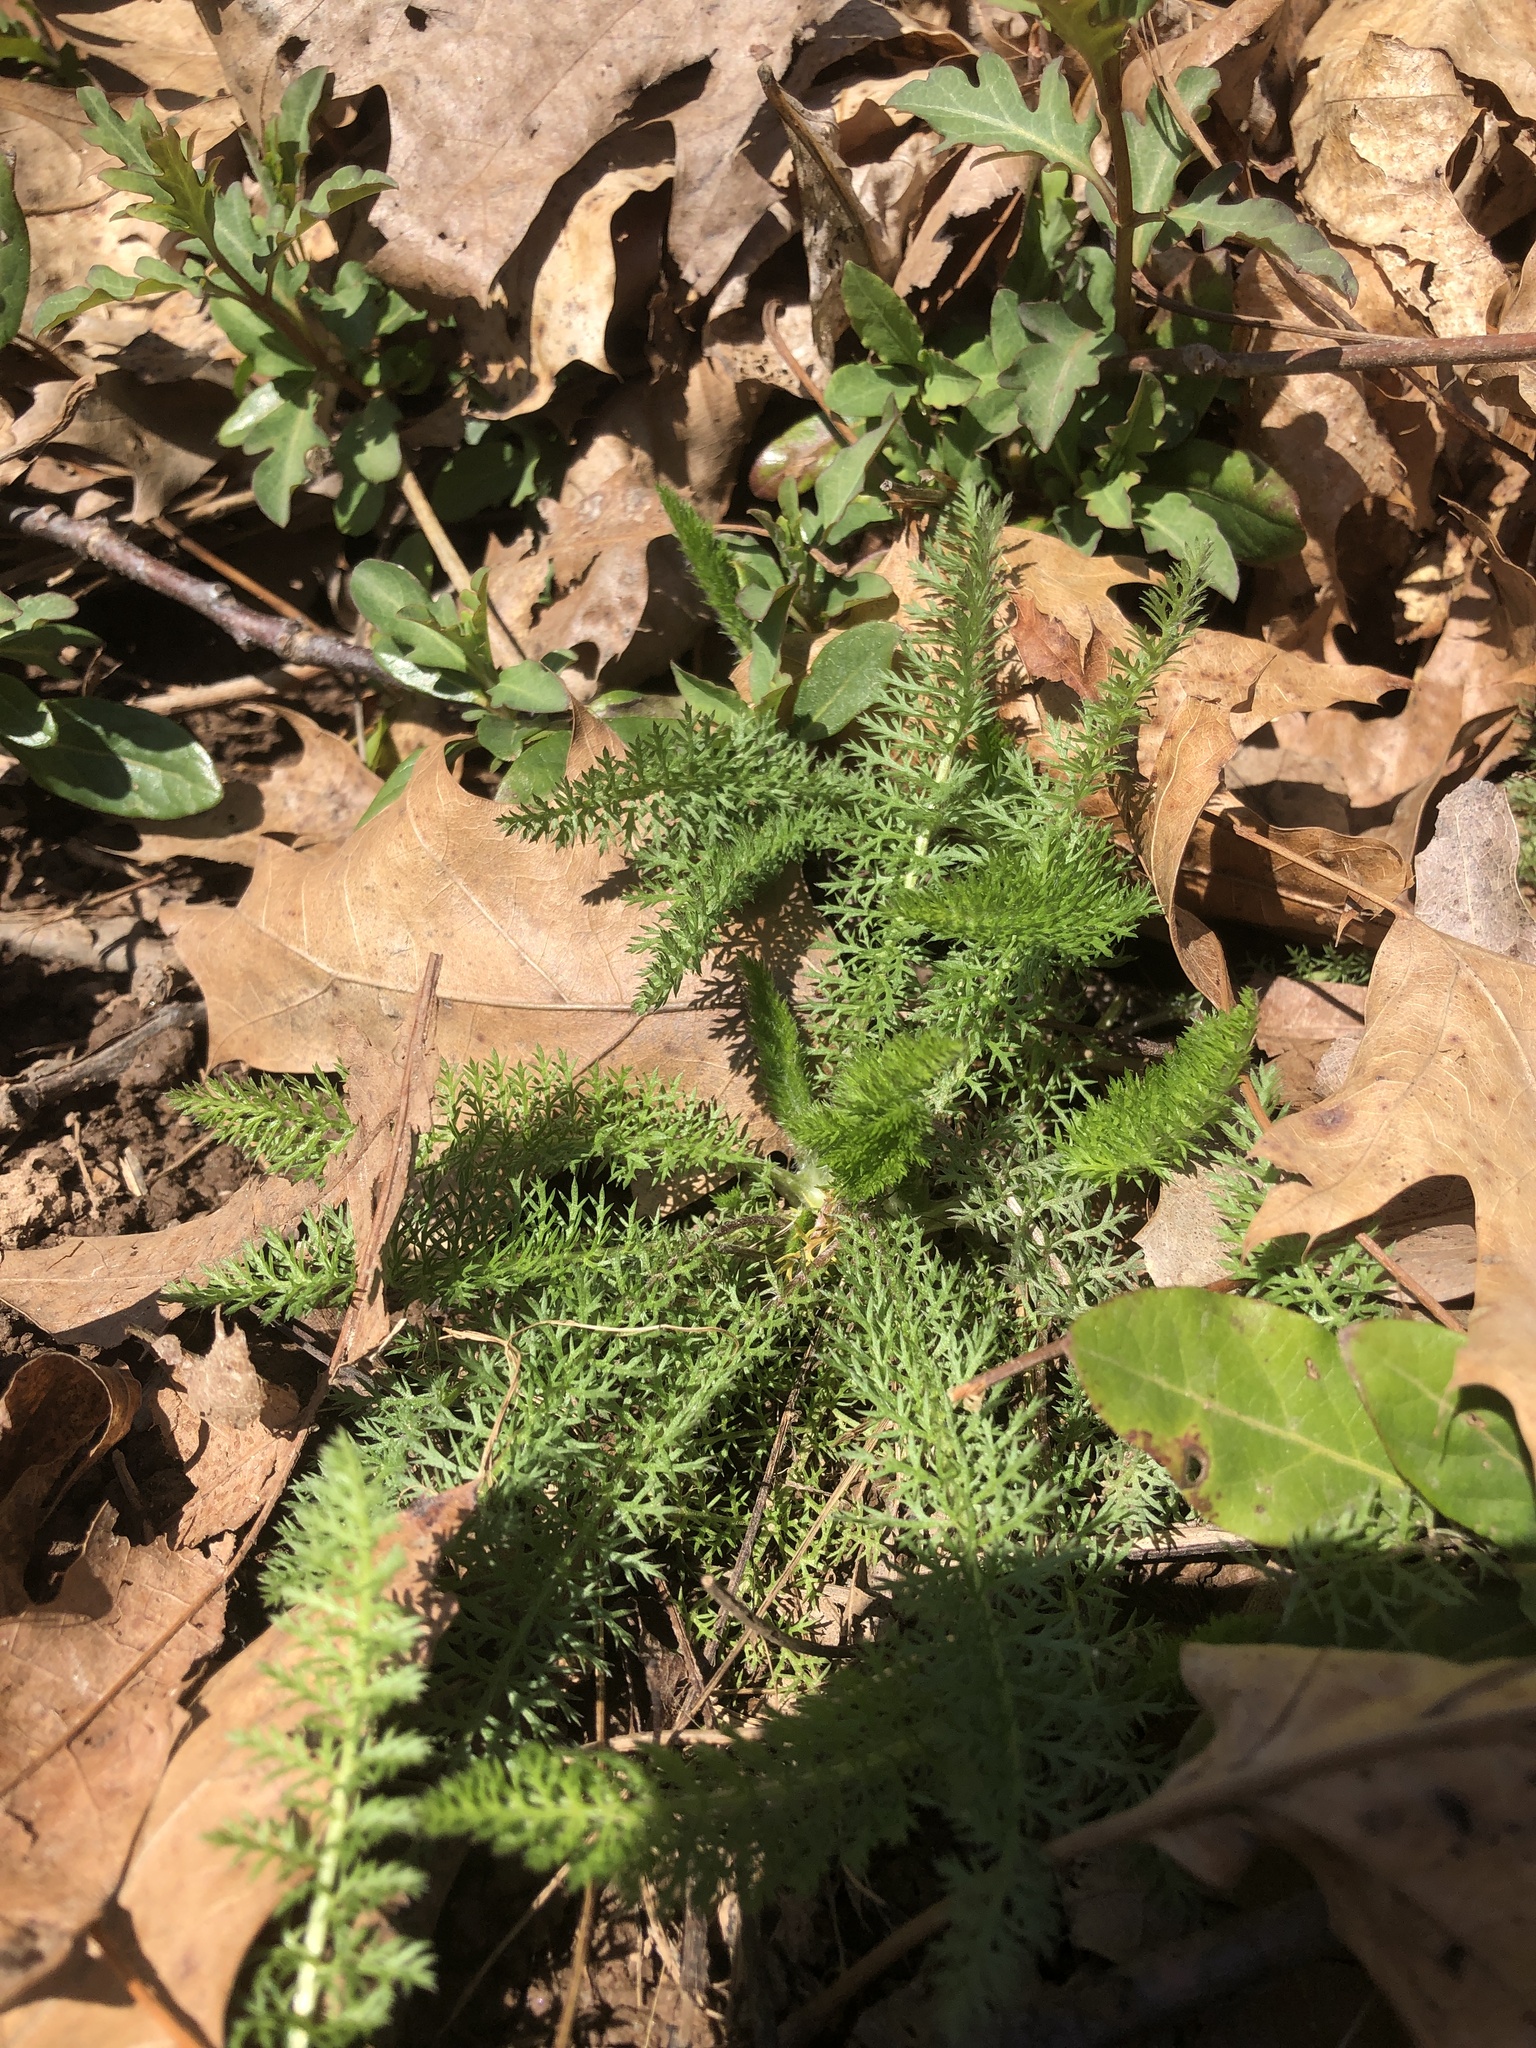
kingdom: Plantae
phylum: Tracheophyta
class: Magnoliopsida
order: Asterales
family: Asteraceae
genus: Achillea
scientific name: Achillea millefolium
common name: Yarrow
